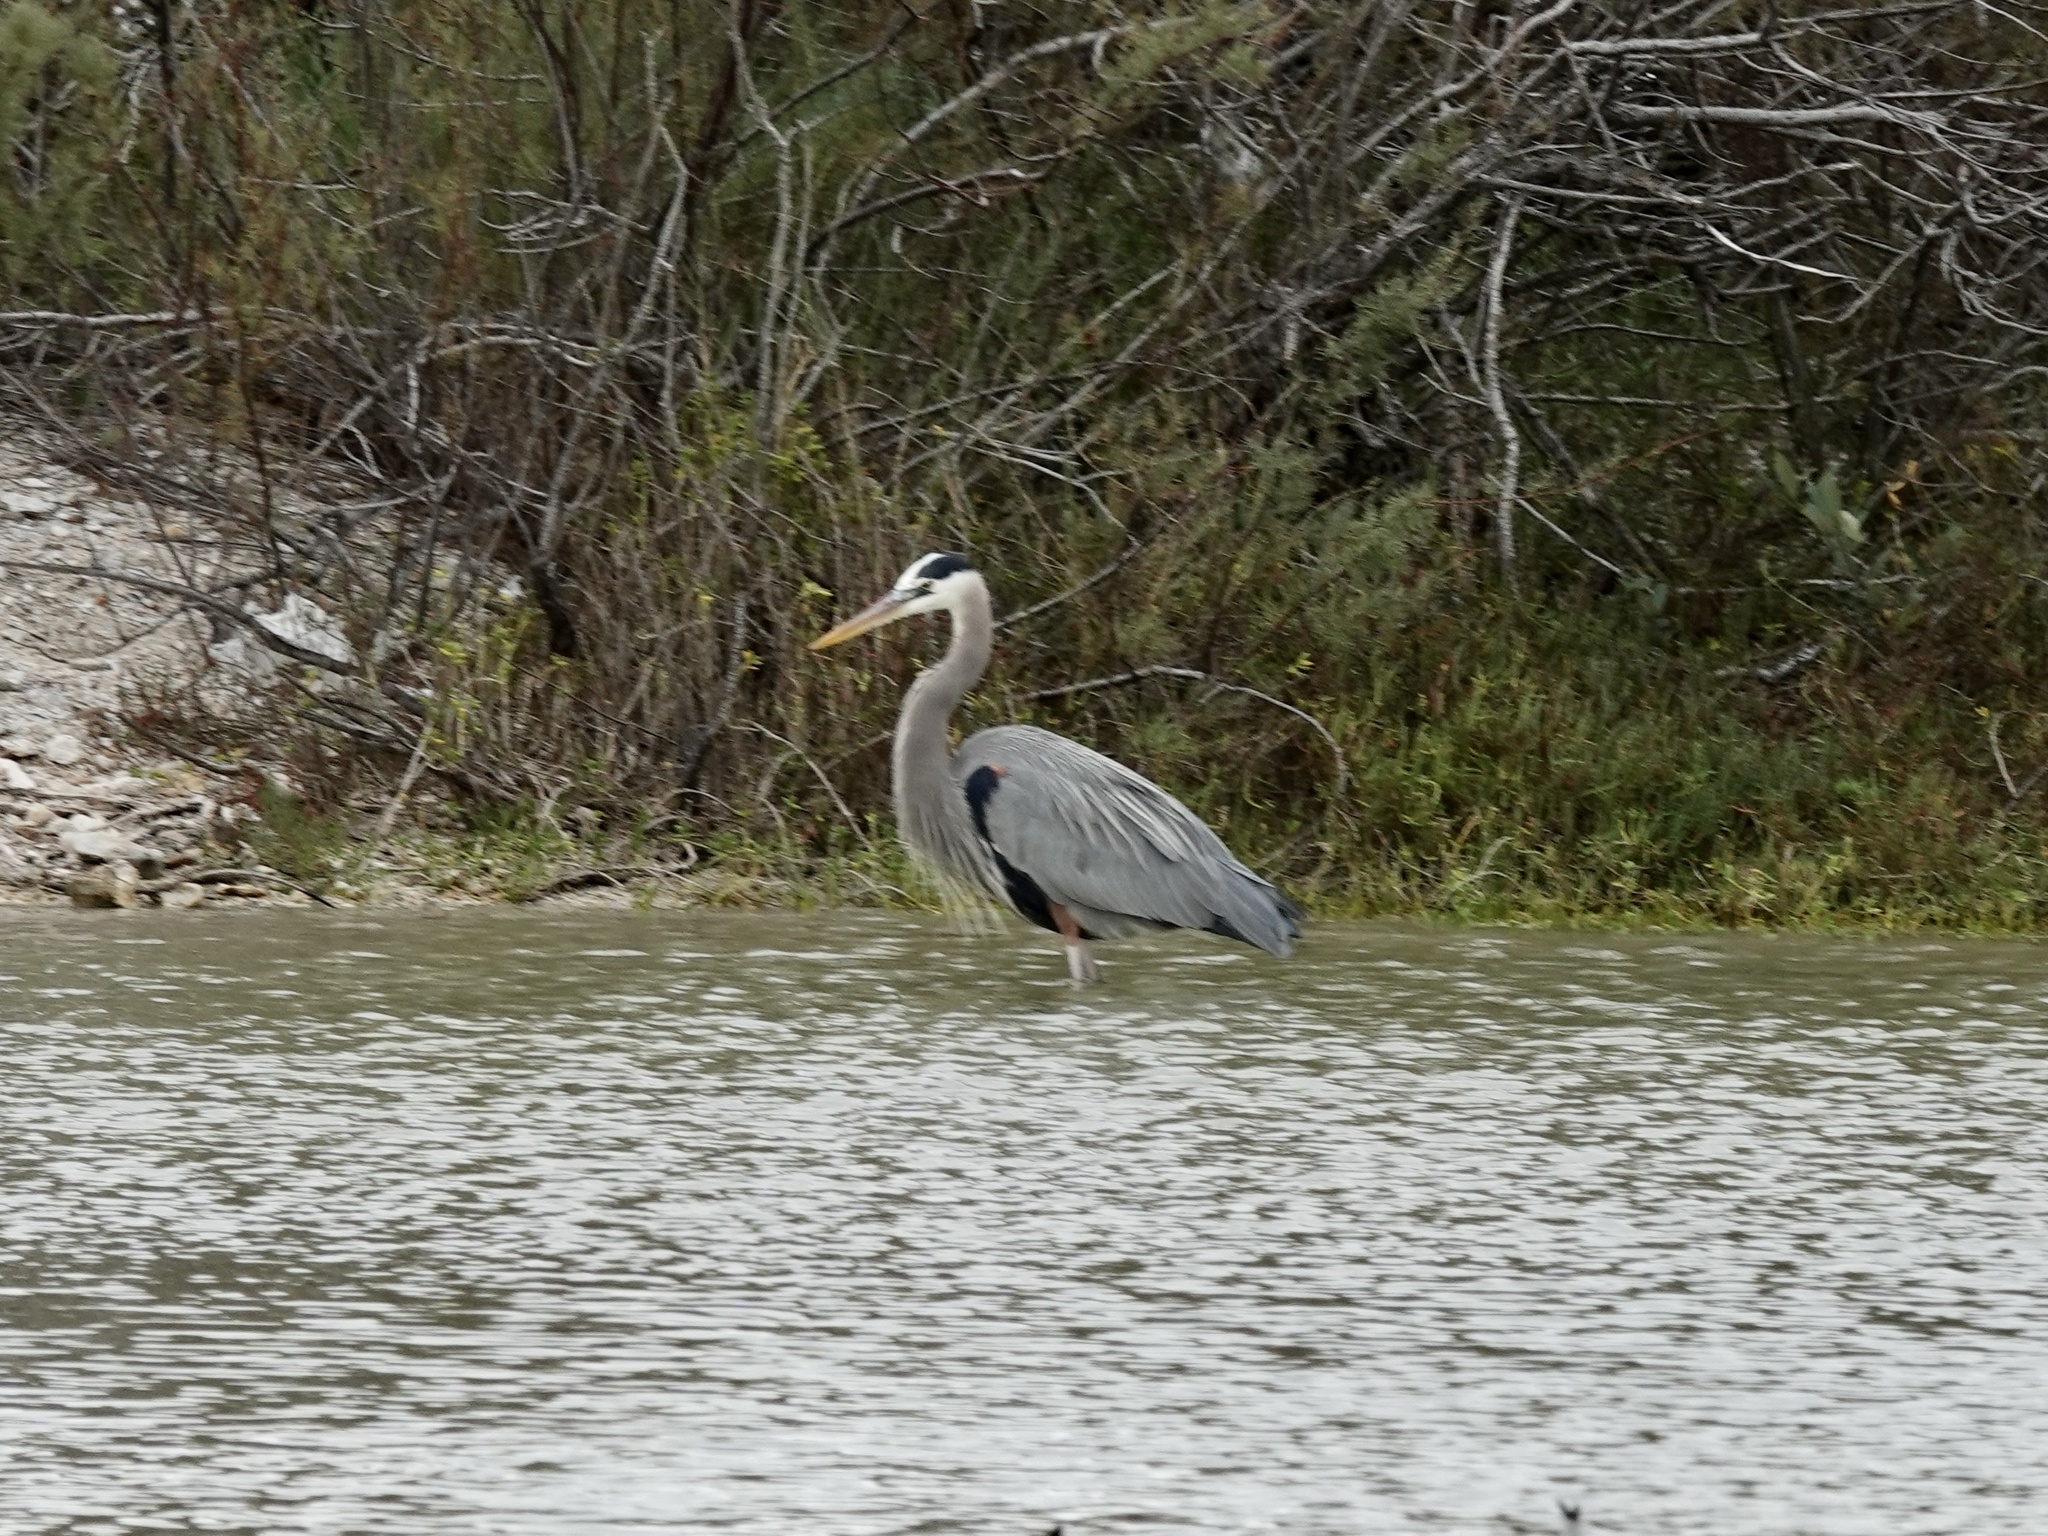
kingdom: Animalia
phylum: Chordata
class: Aves
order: Pelecaniformes
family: Ardeidae
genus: Ardea
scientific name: Ardea herodias
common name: Great blue heron
